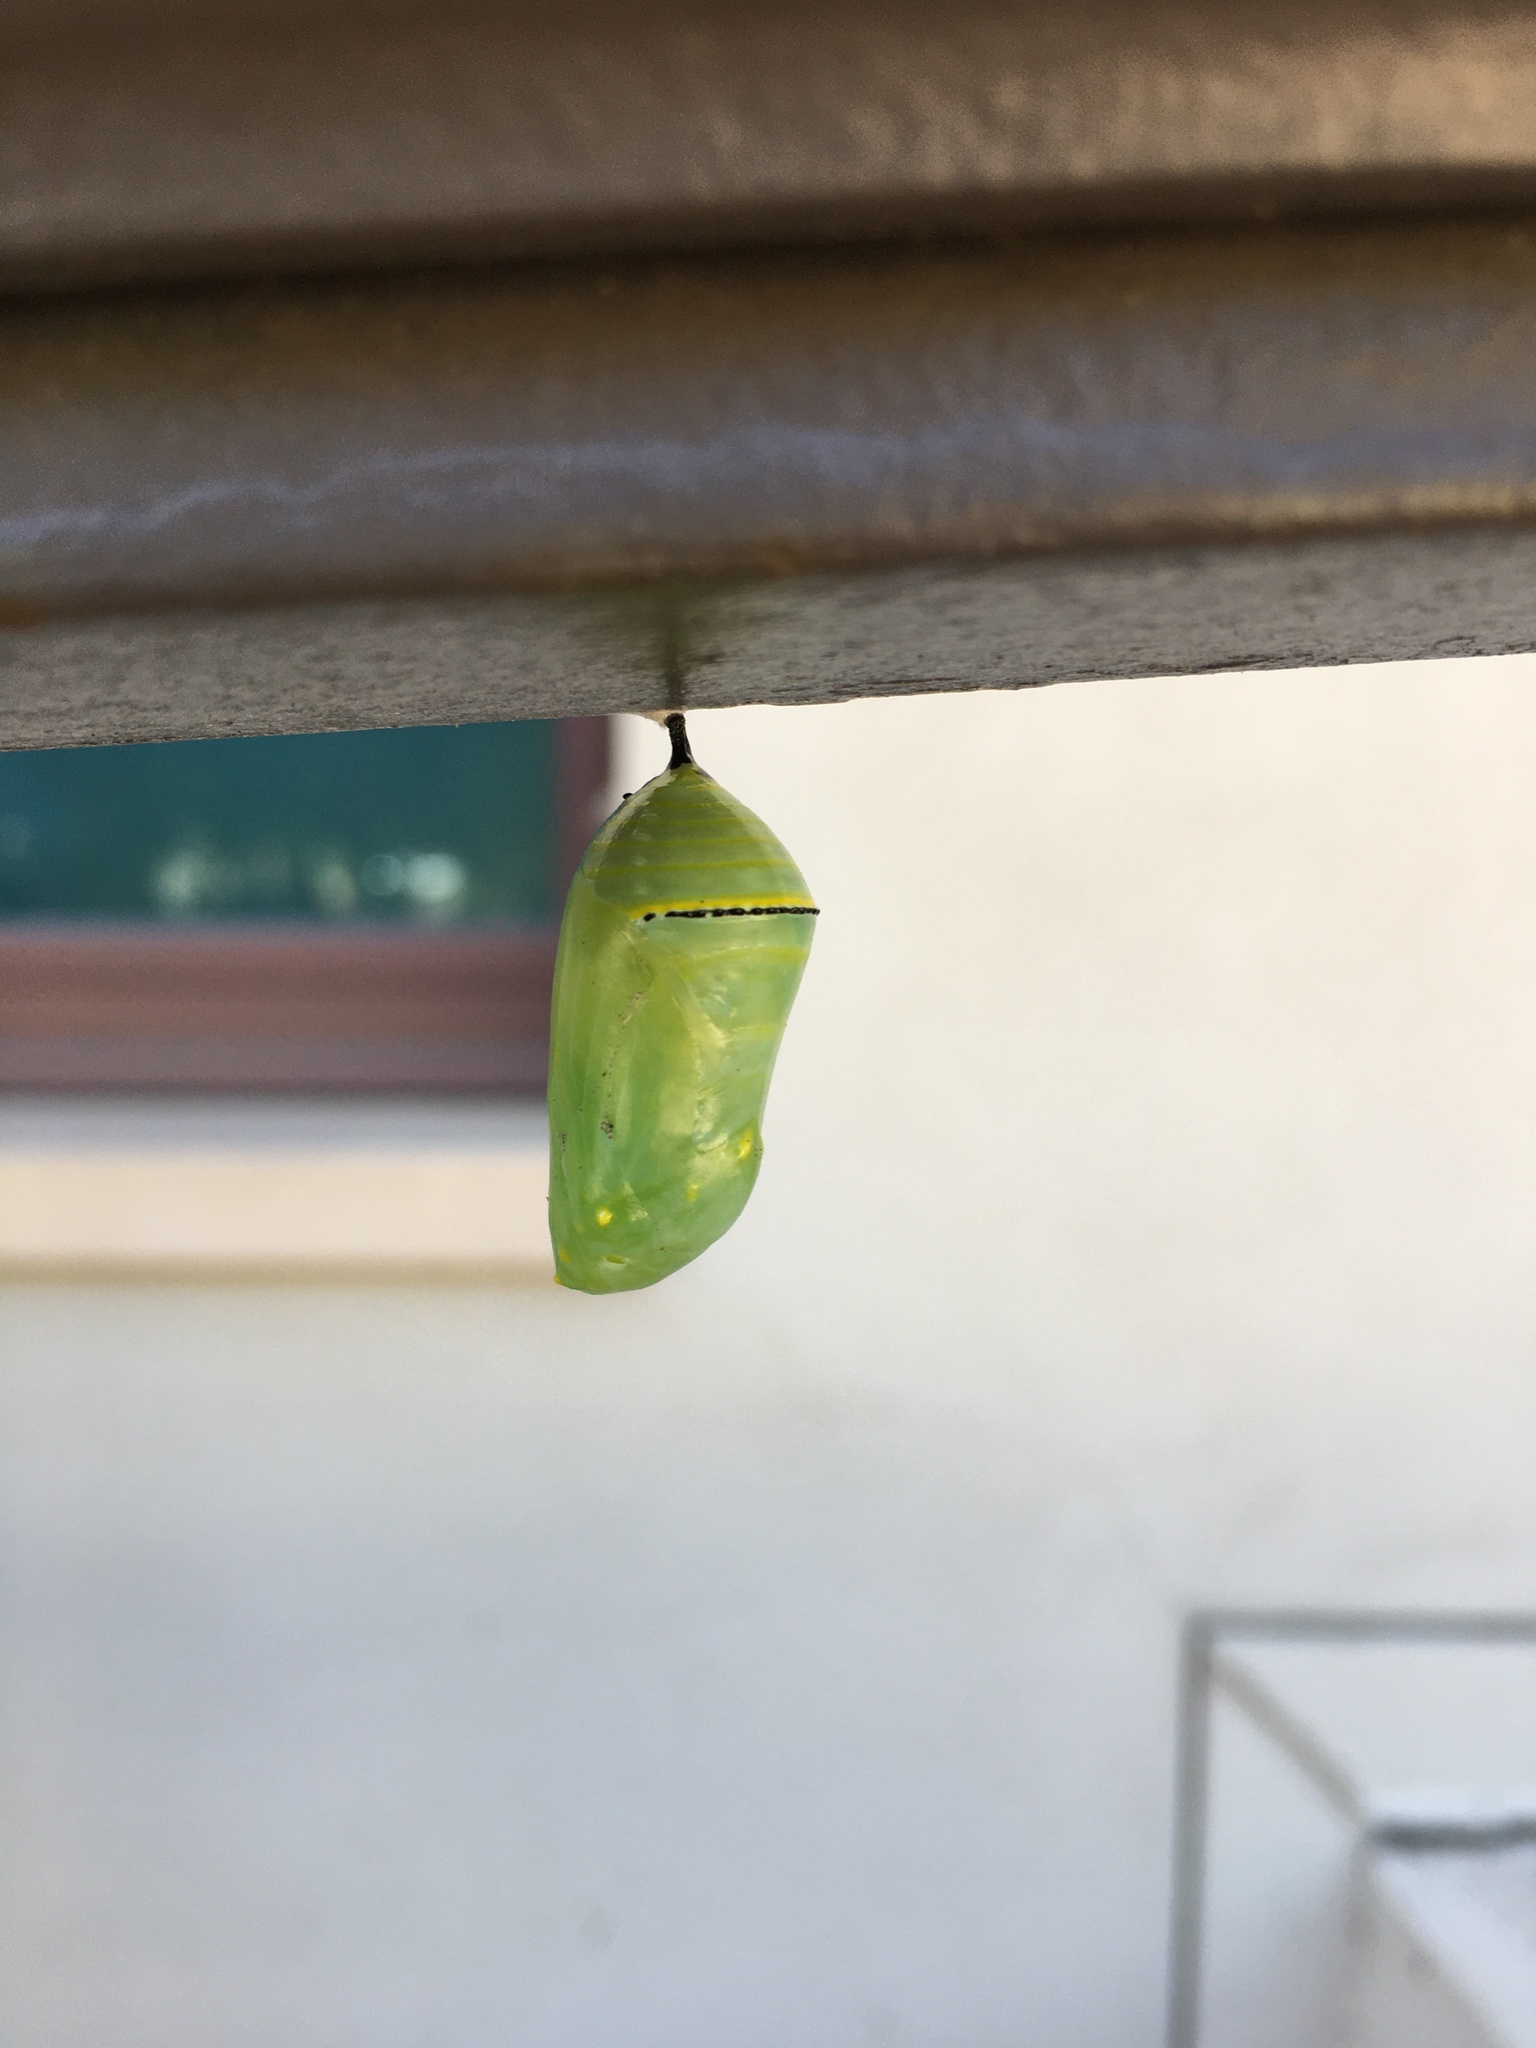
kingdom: Animalia
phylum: Arthropoda
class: Insecta
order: Lepidoptera
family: Nymphalidae
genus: Danaus
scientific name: Danaus plexippus
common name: Monarch
